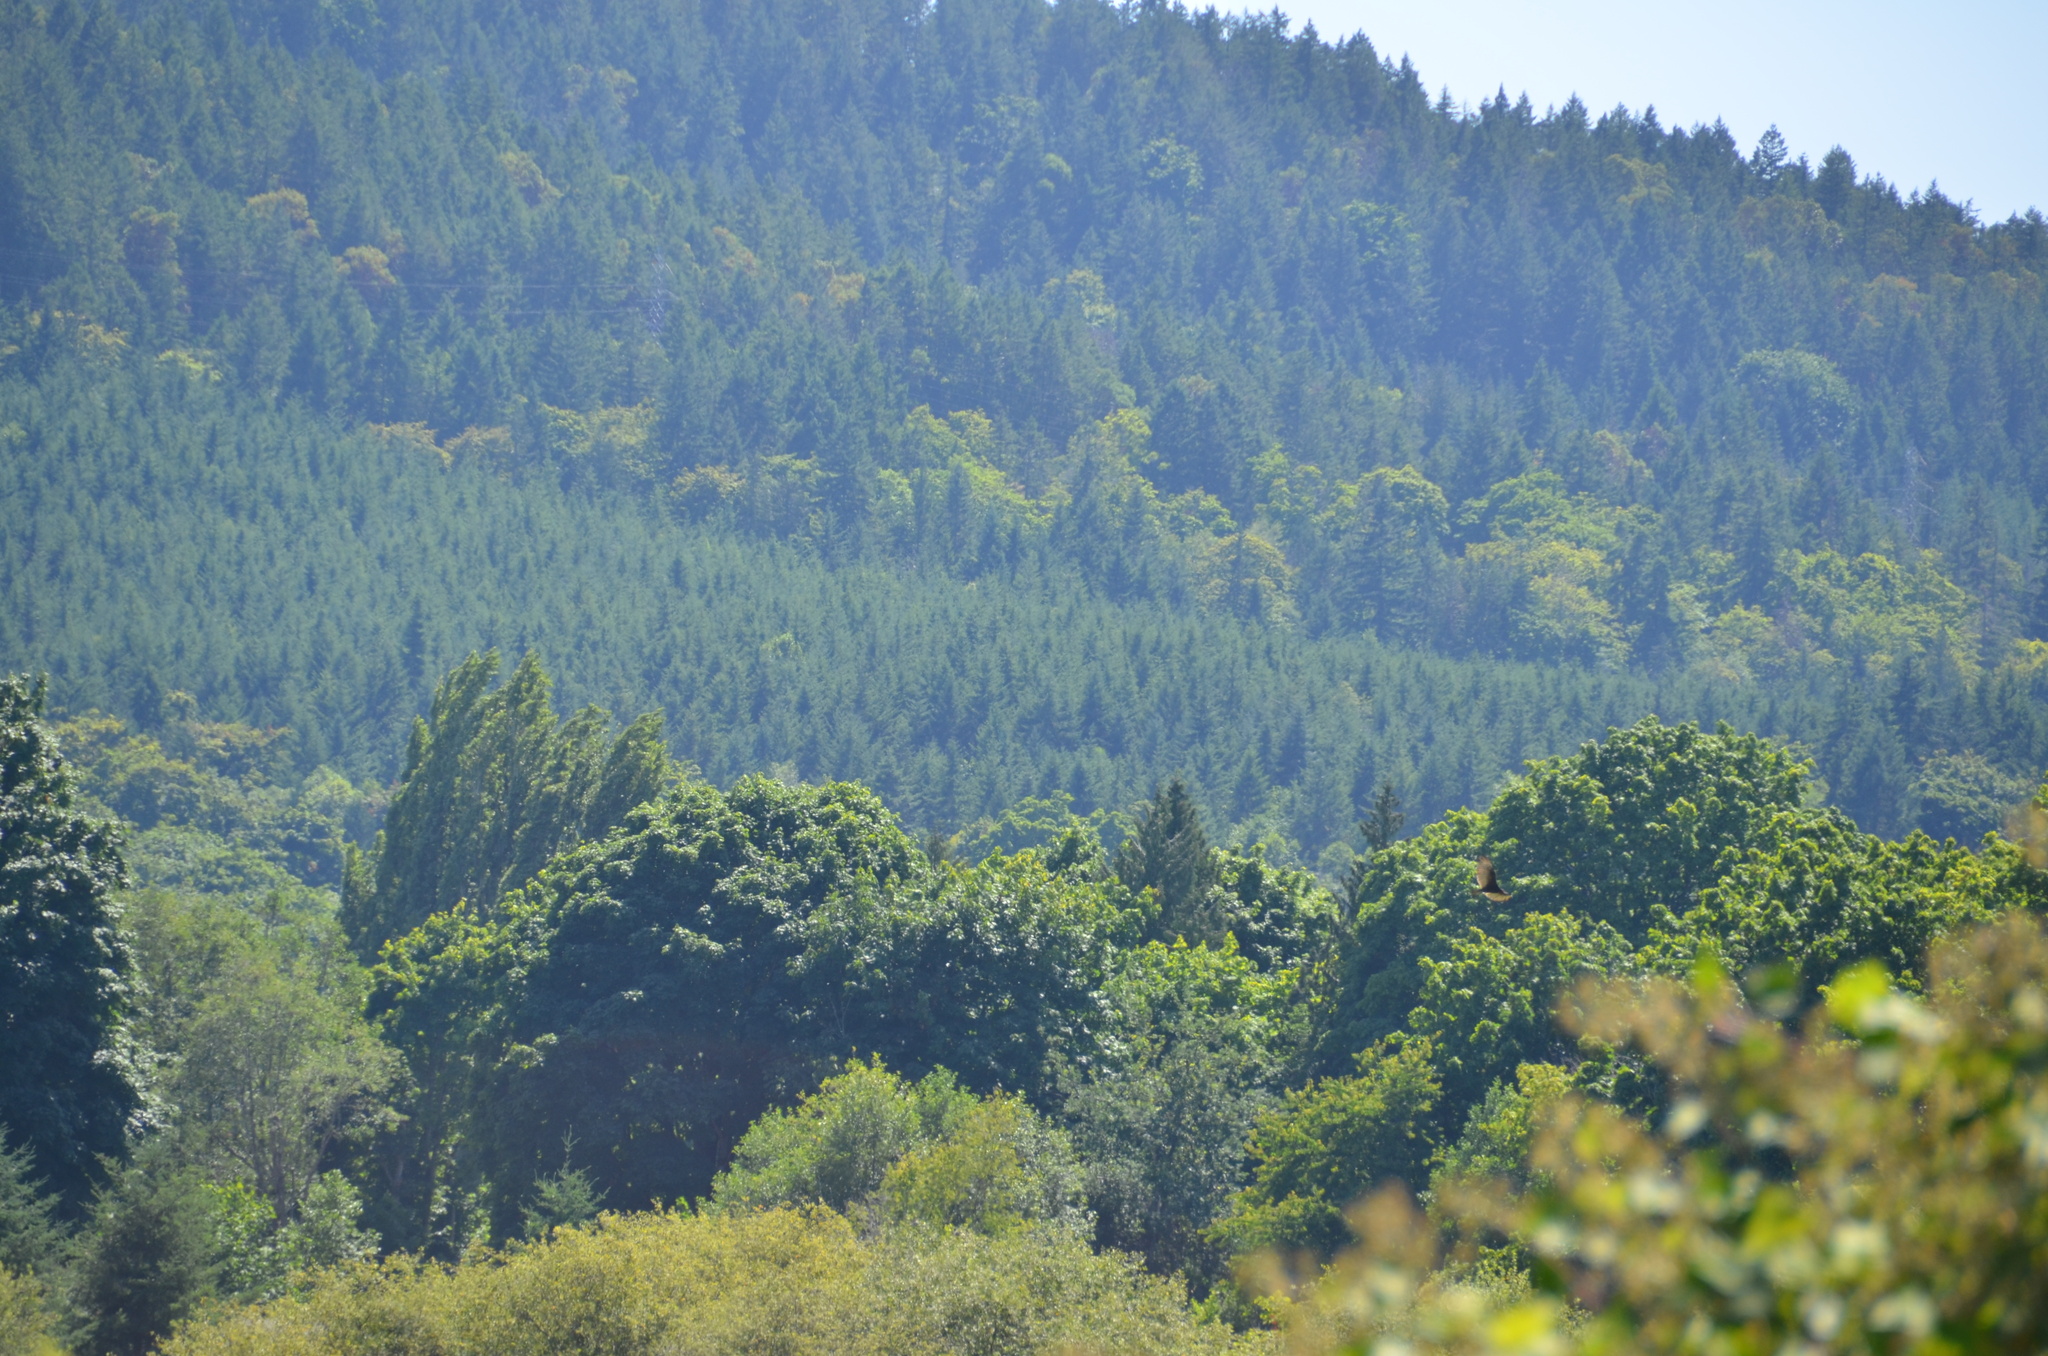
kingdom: Animalia
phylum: Chordata
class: Aves
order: Accipitriformes
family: Cathartidae
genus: Cathartes
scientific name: Cathartes aura
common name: Turkey vulture
